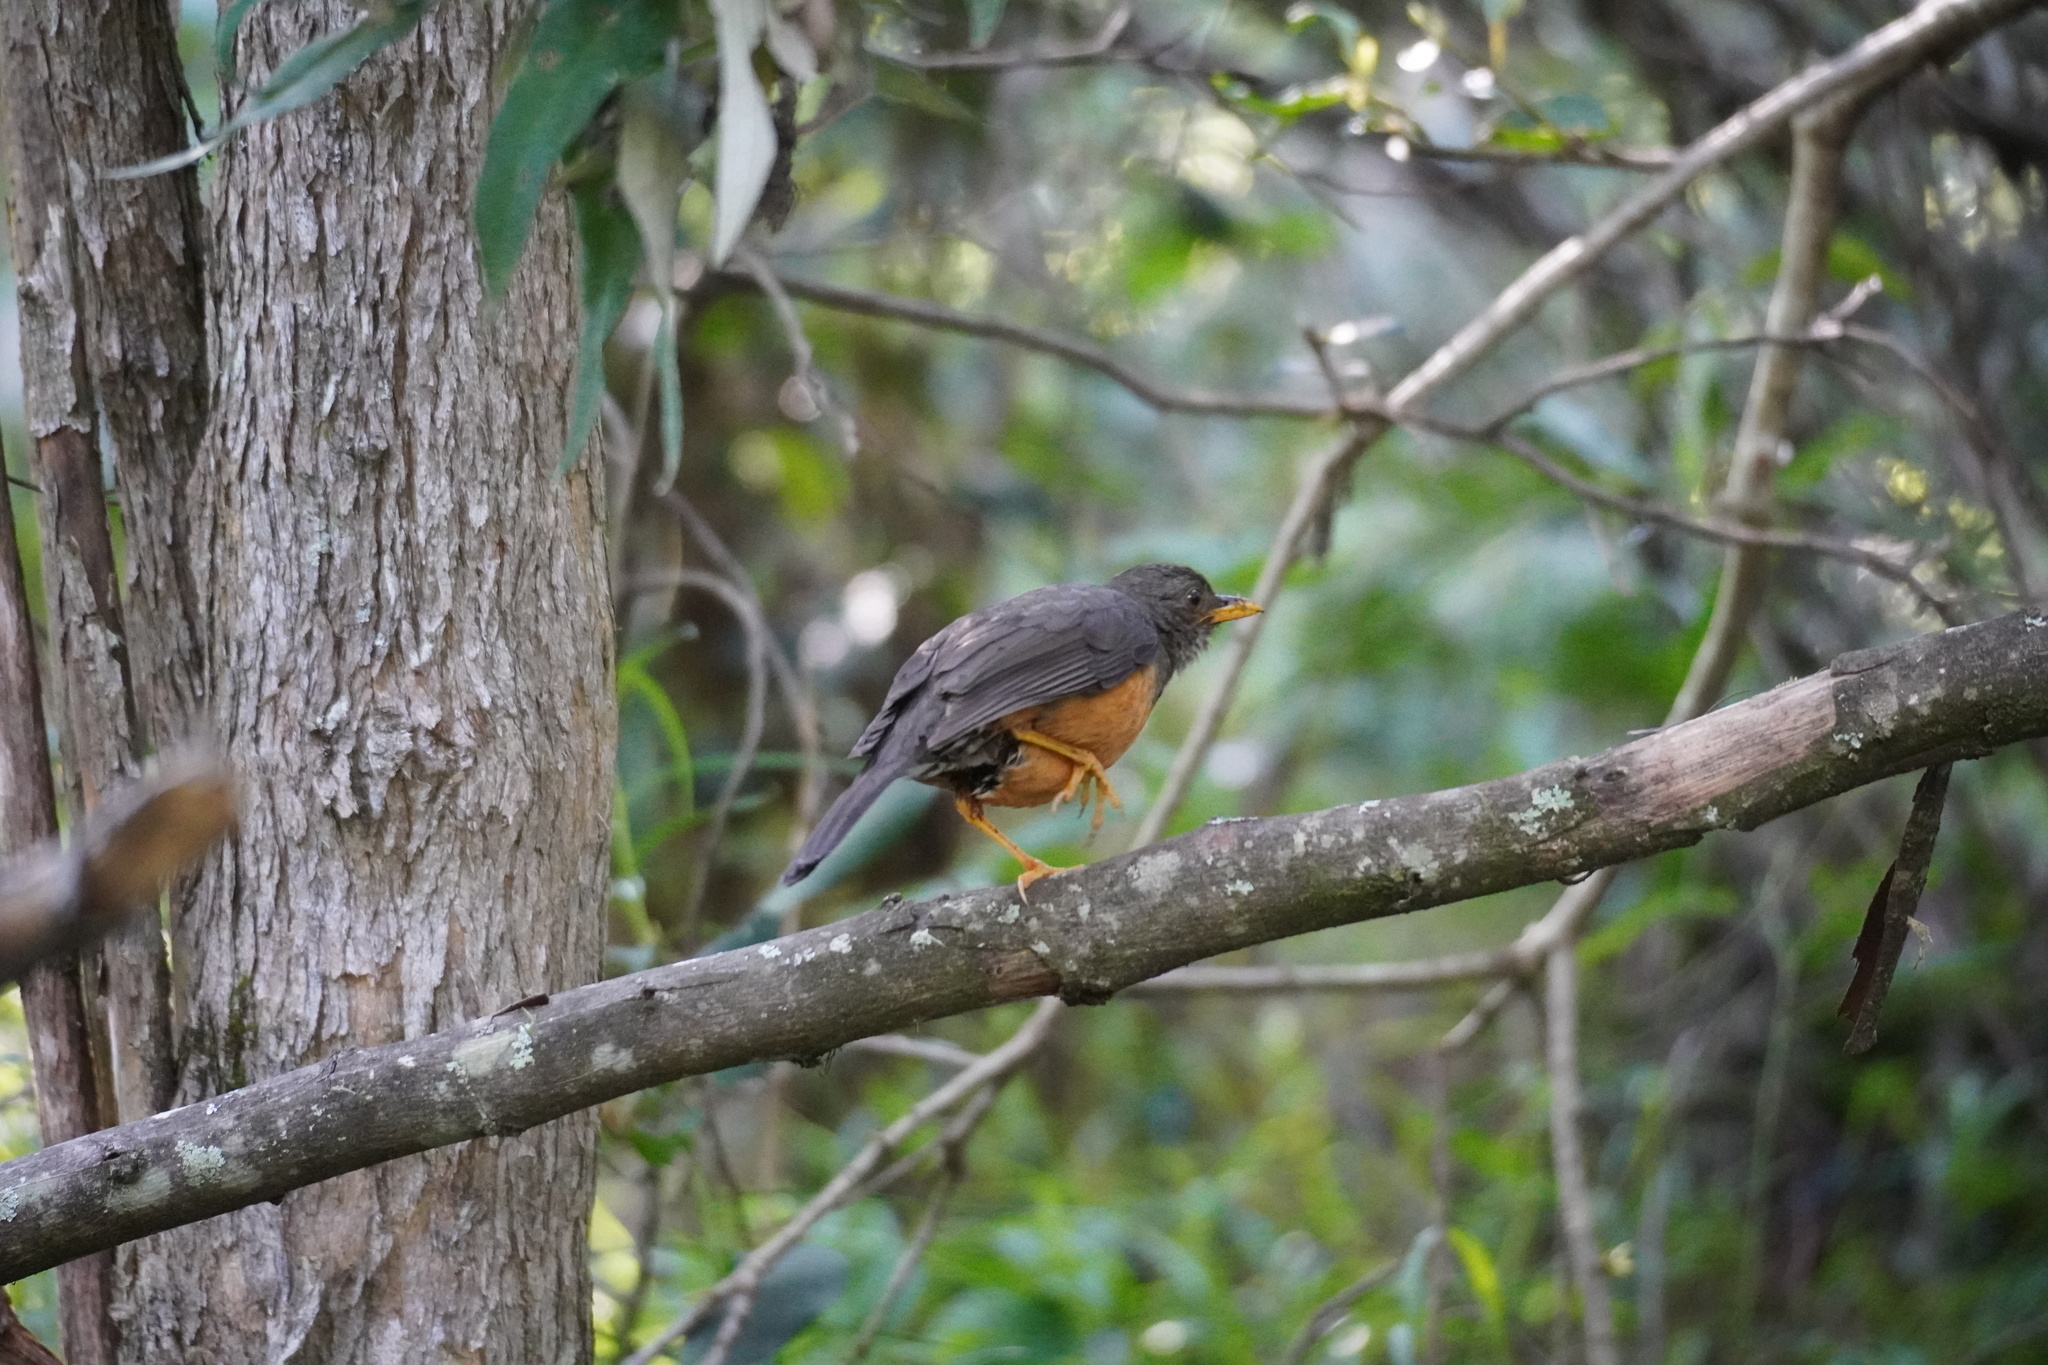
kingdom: Animalia
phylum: Chordata
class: Aves
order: Passeriformes
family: Turdidae
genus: Turdus
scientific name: Turdus olivaceus
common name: Olive thrush
